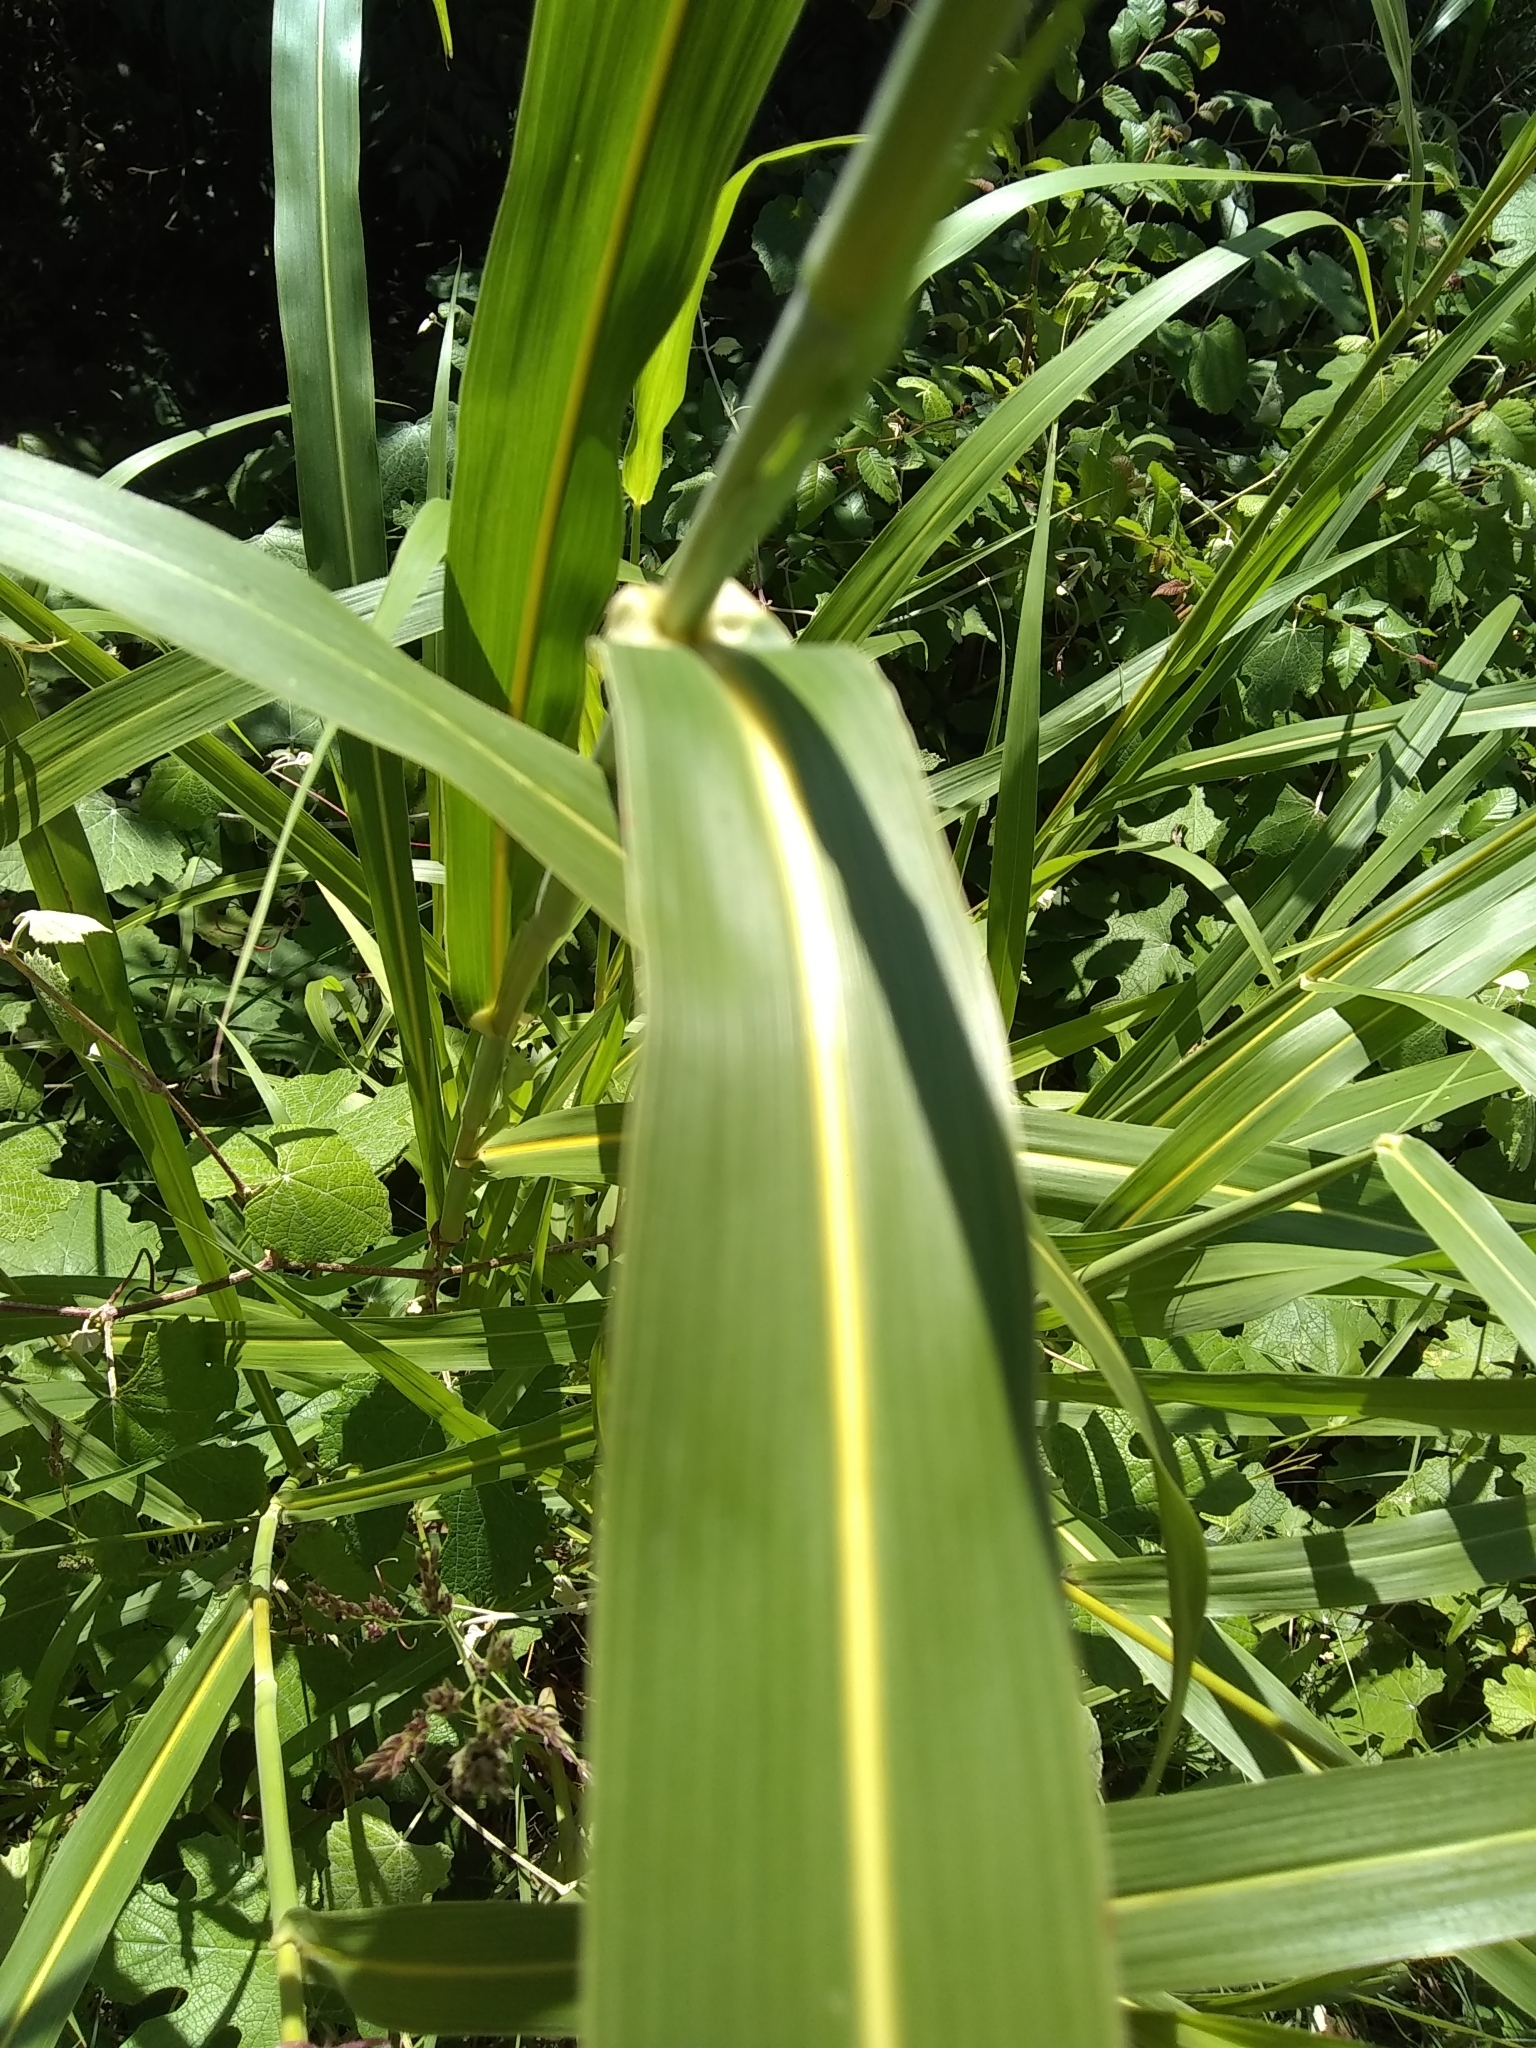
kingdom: Plantae
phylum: Tracheophyta
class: Liliopsida
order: Poales
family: Poaceae
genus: Sorghum
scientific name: Sorghum halepense
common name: Johnson-grass
